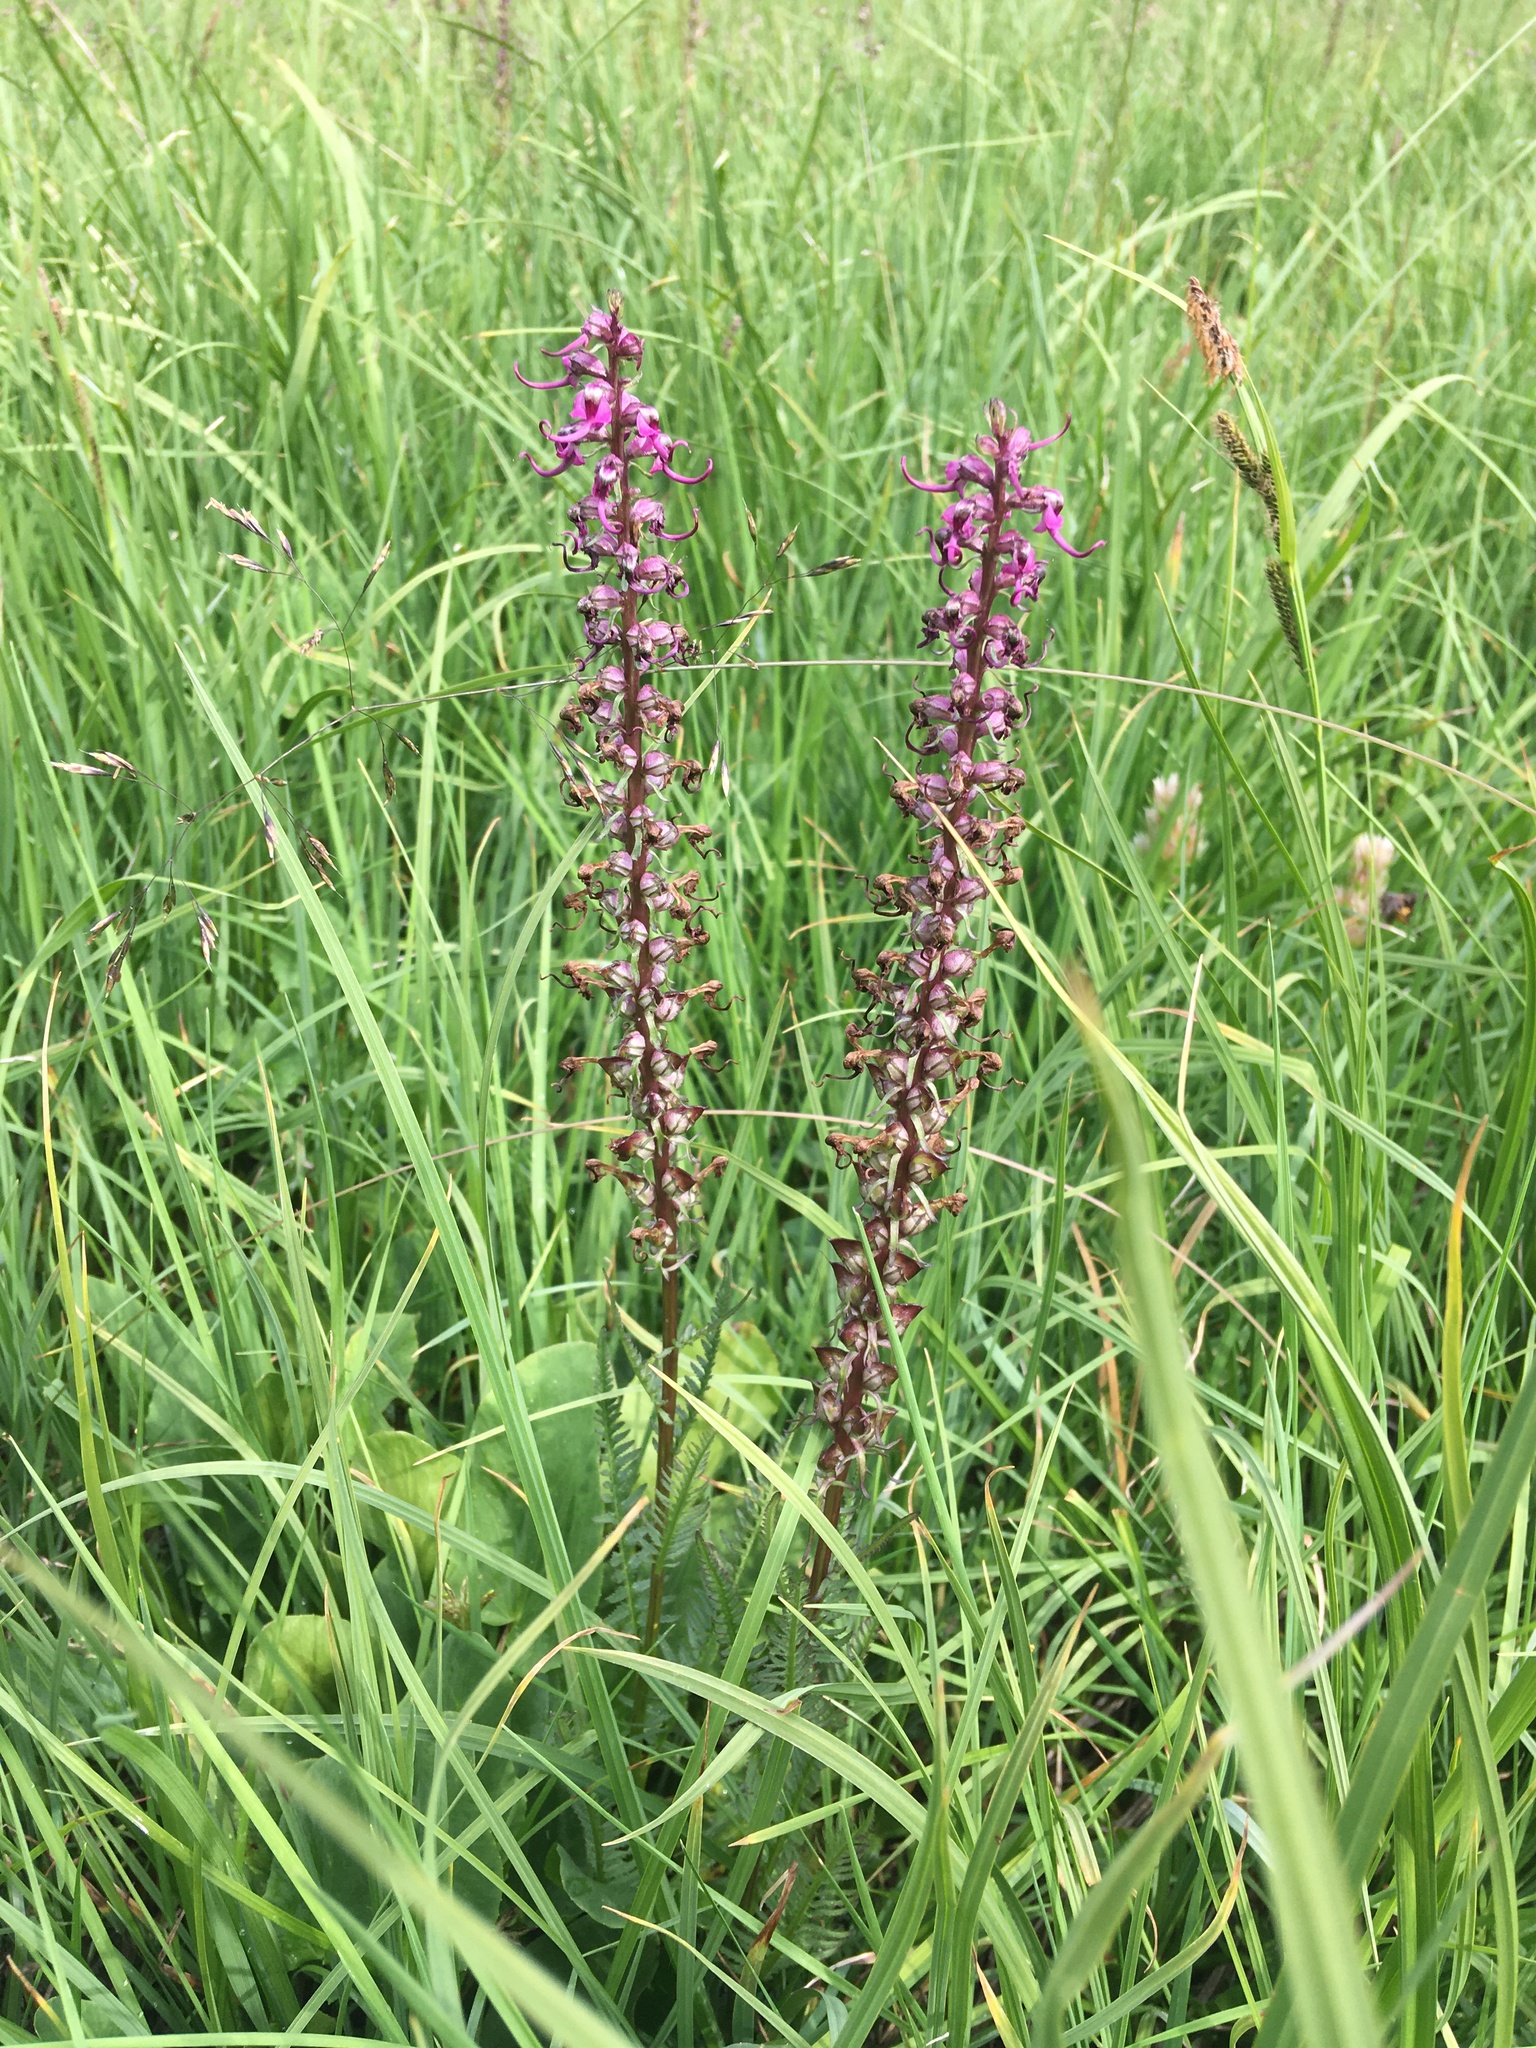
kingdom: Plantae
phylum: Tracheophyta
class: Magnoliopsida
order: Lamiales
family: Orobanchaceae
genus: Pedicularis
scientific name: Pedicularis groenlandica
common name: Elephant's-head
